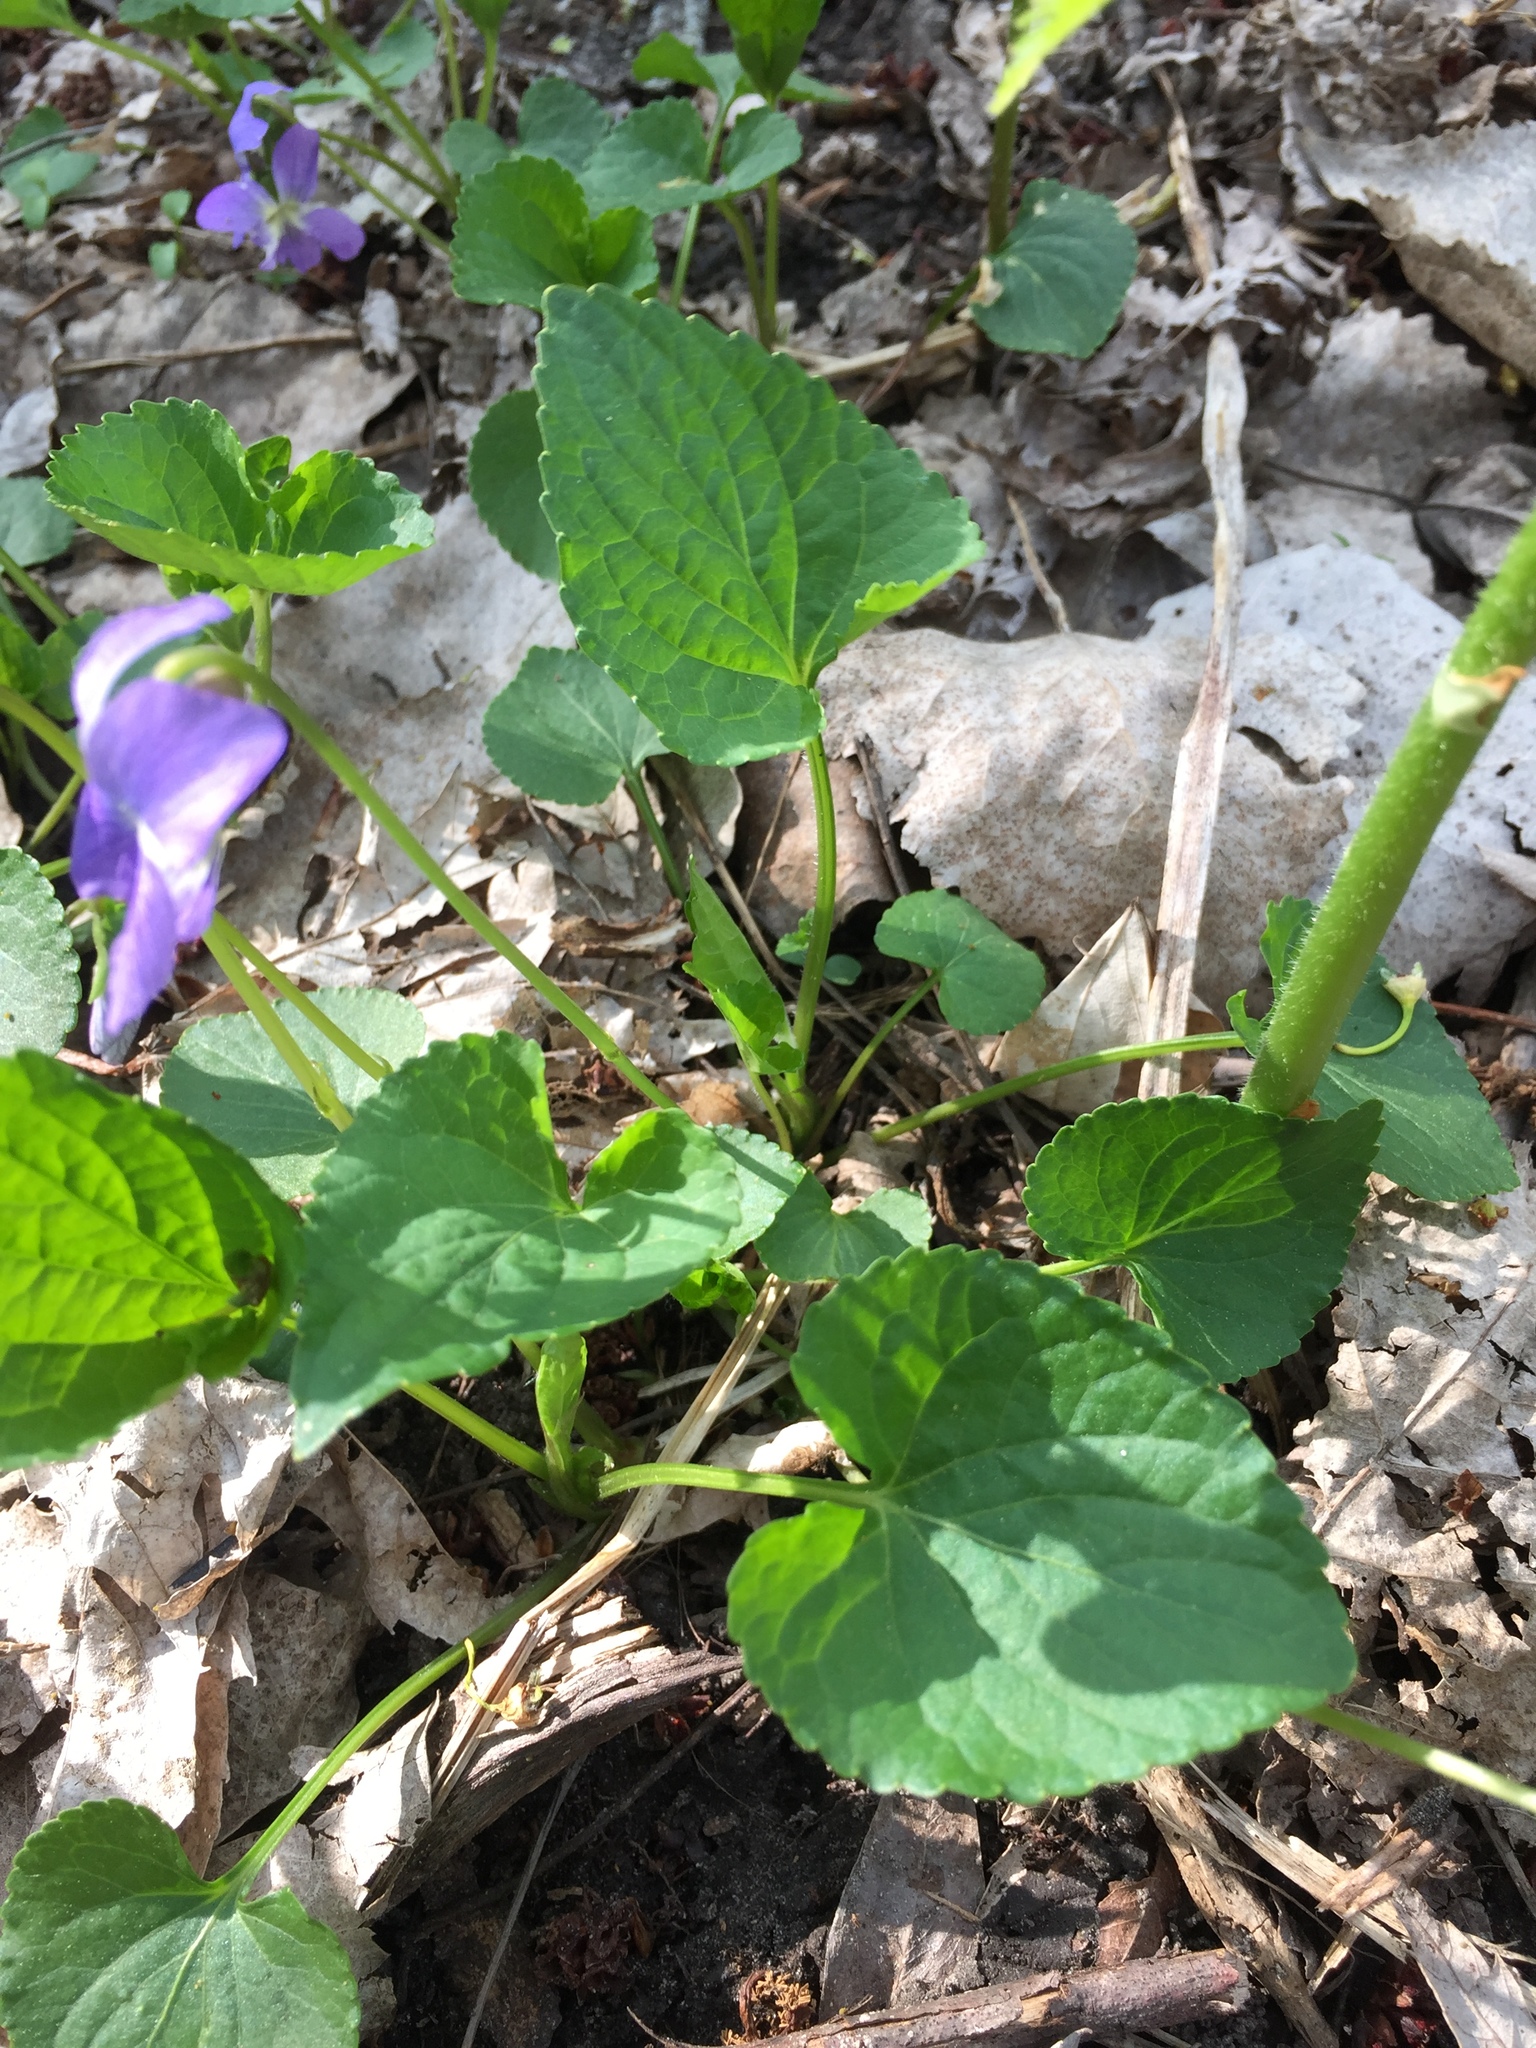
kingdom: Plantae
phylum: Tracheophyta
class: Magnoliopsida
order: Malpighiales
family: Violaceae
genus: Viola
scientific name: Viola sororia
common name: Dooryard violet
